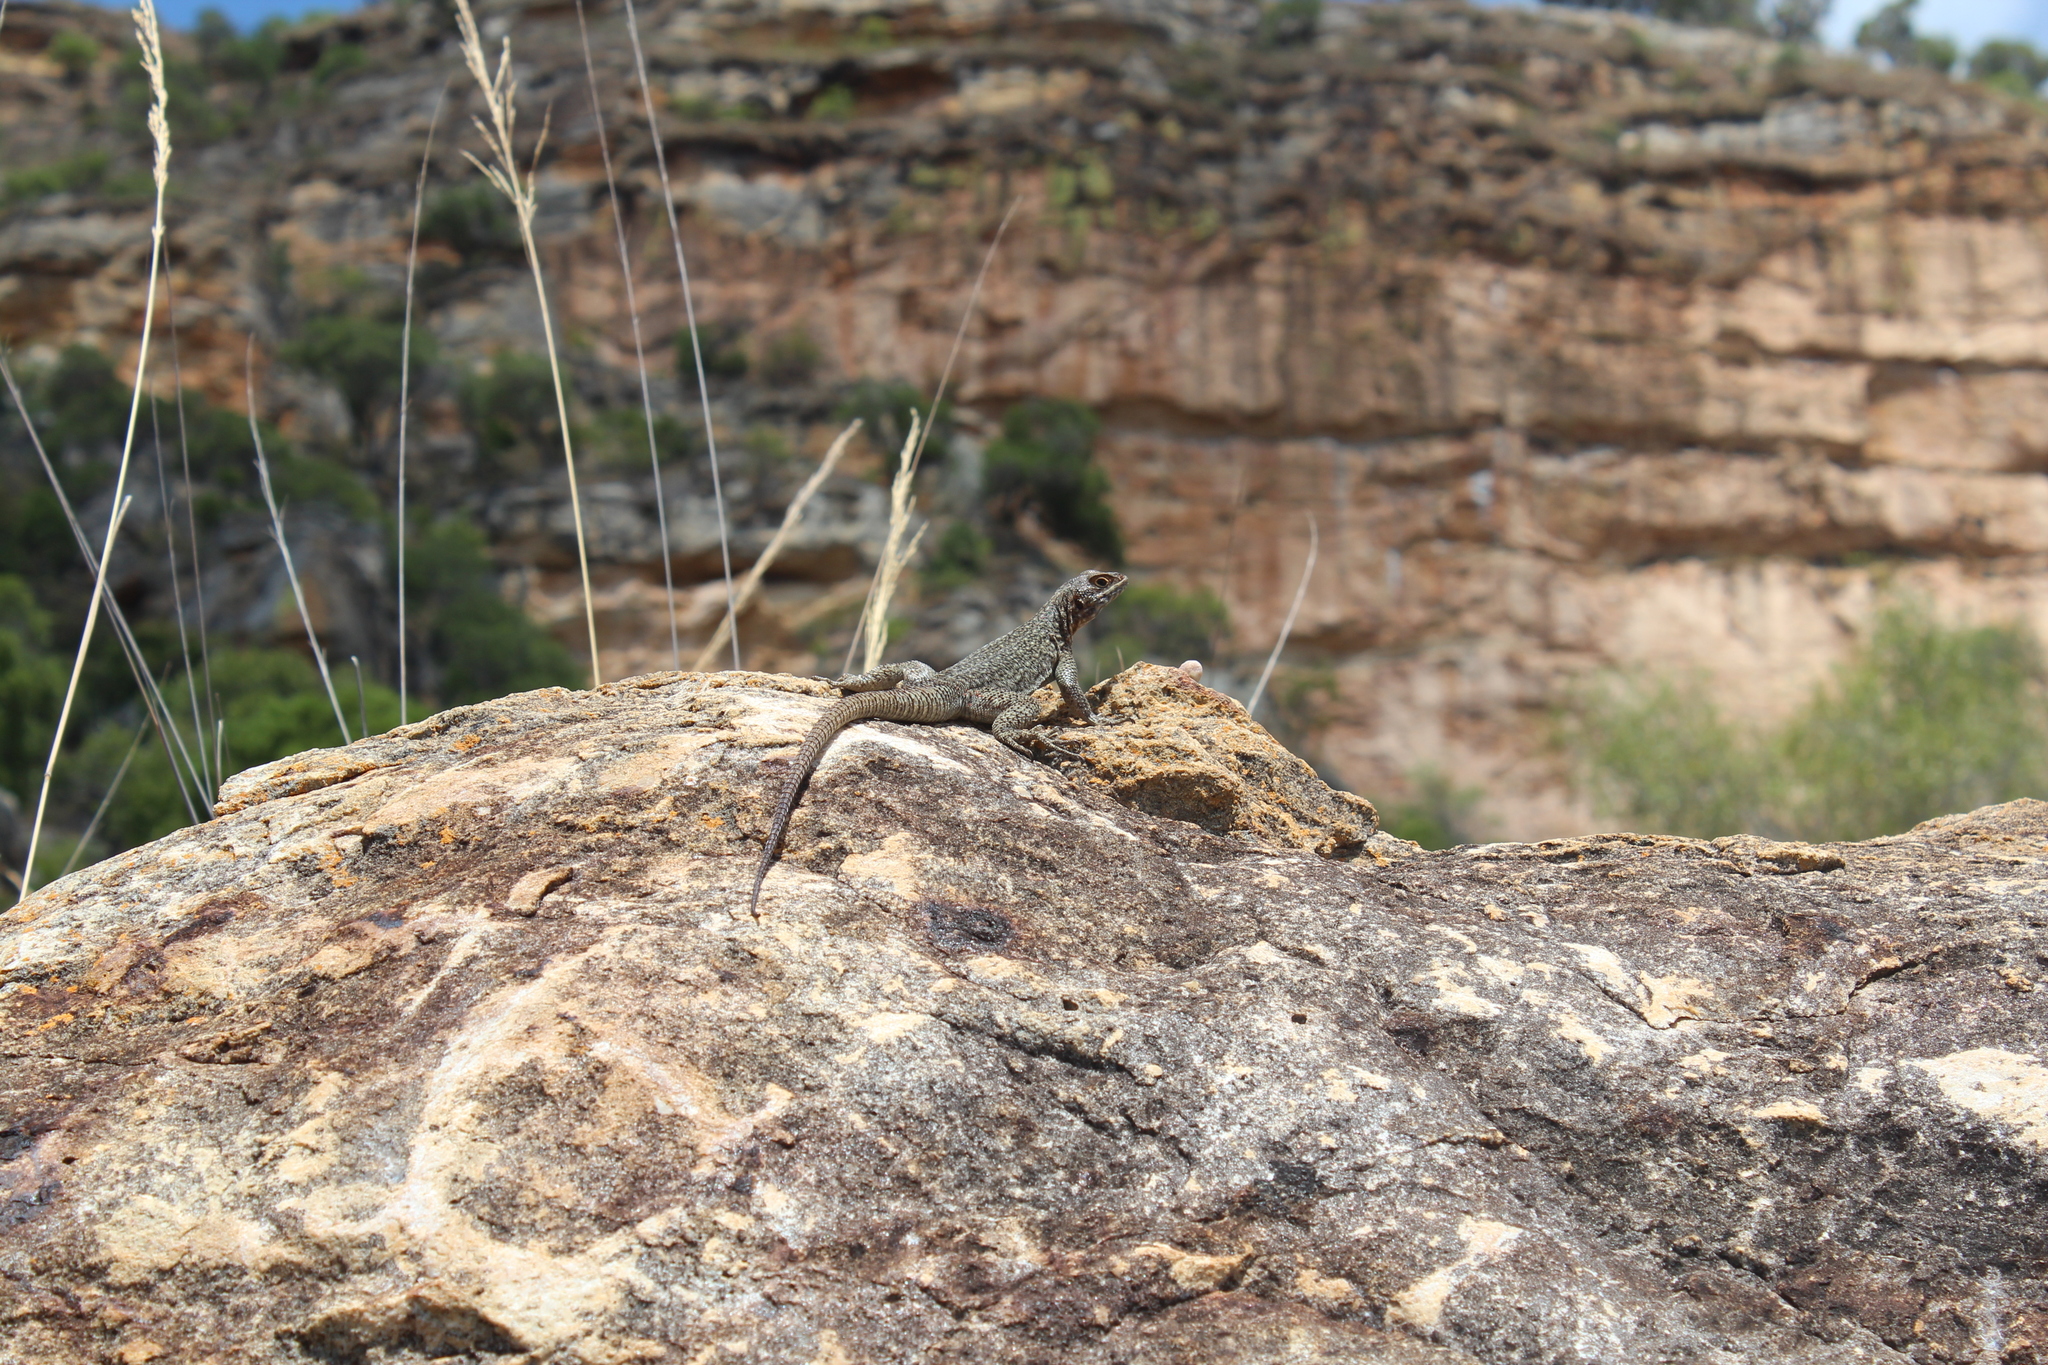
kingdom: Animalia
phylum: Chordata
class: Squamata
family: Opluridae
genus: Oplurus
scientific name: Oplurus quadrimaculatus
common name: Duméril's madagascar swift
